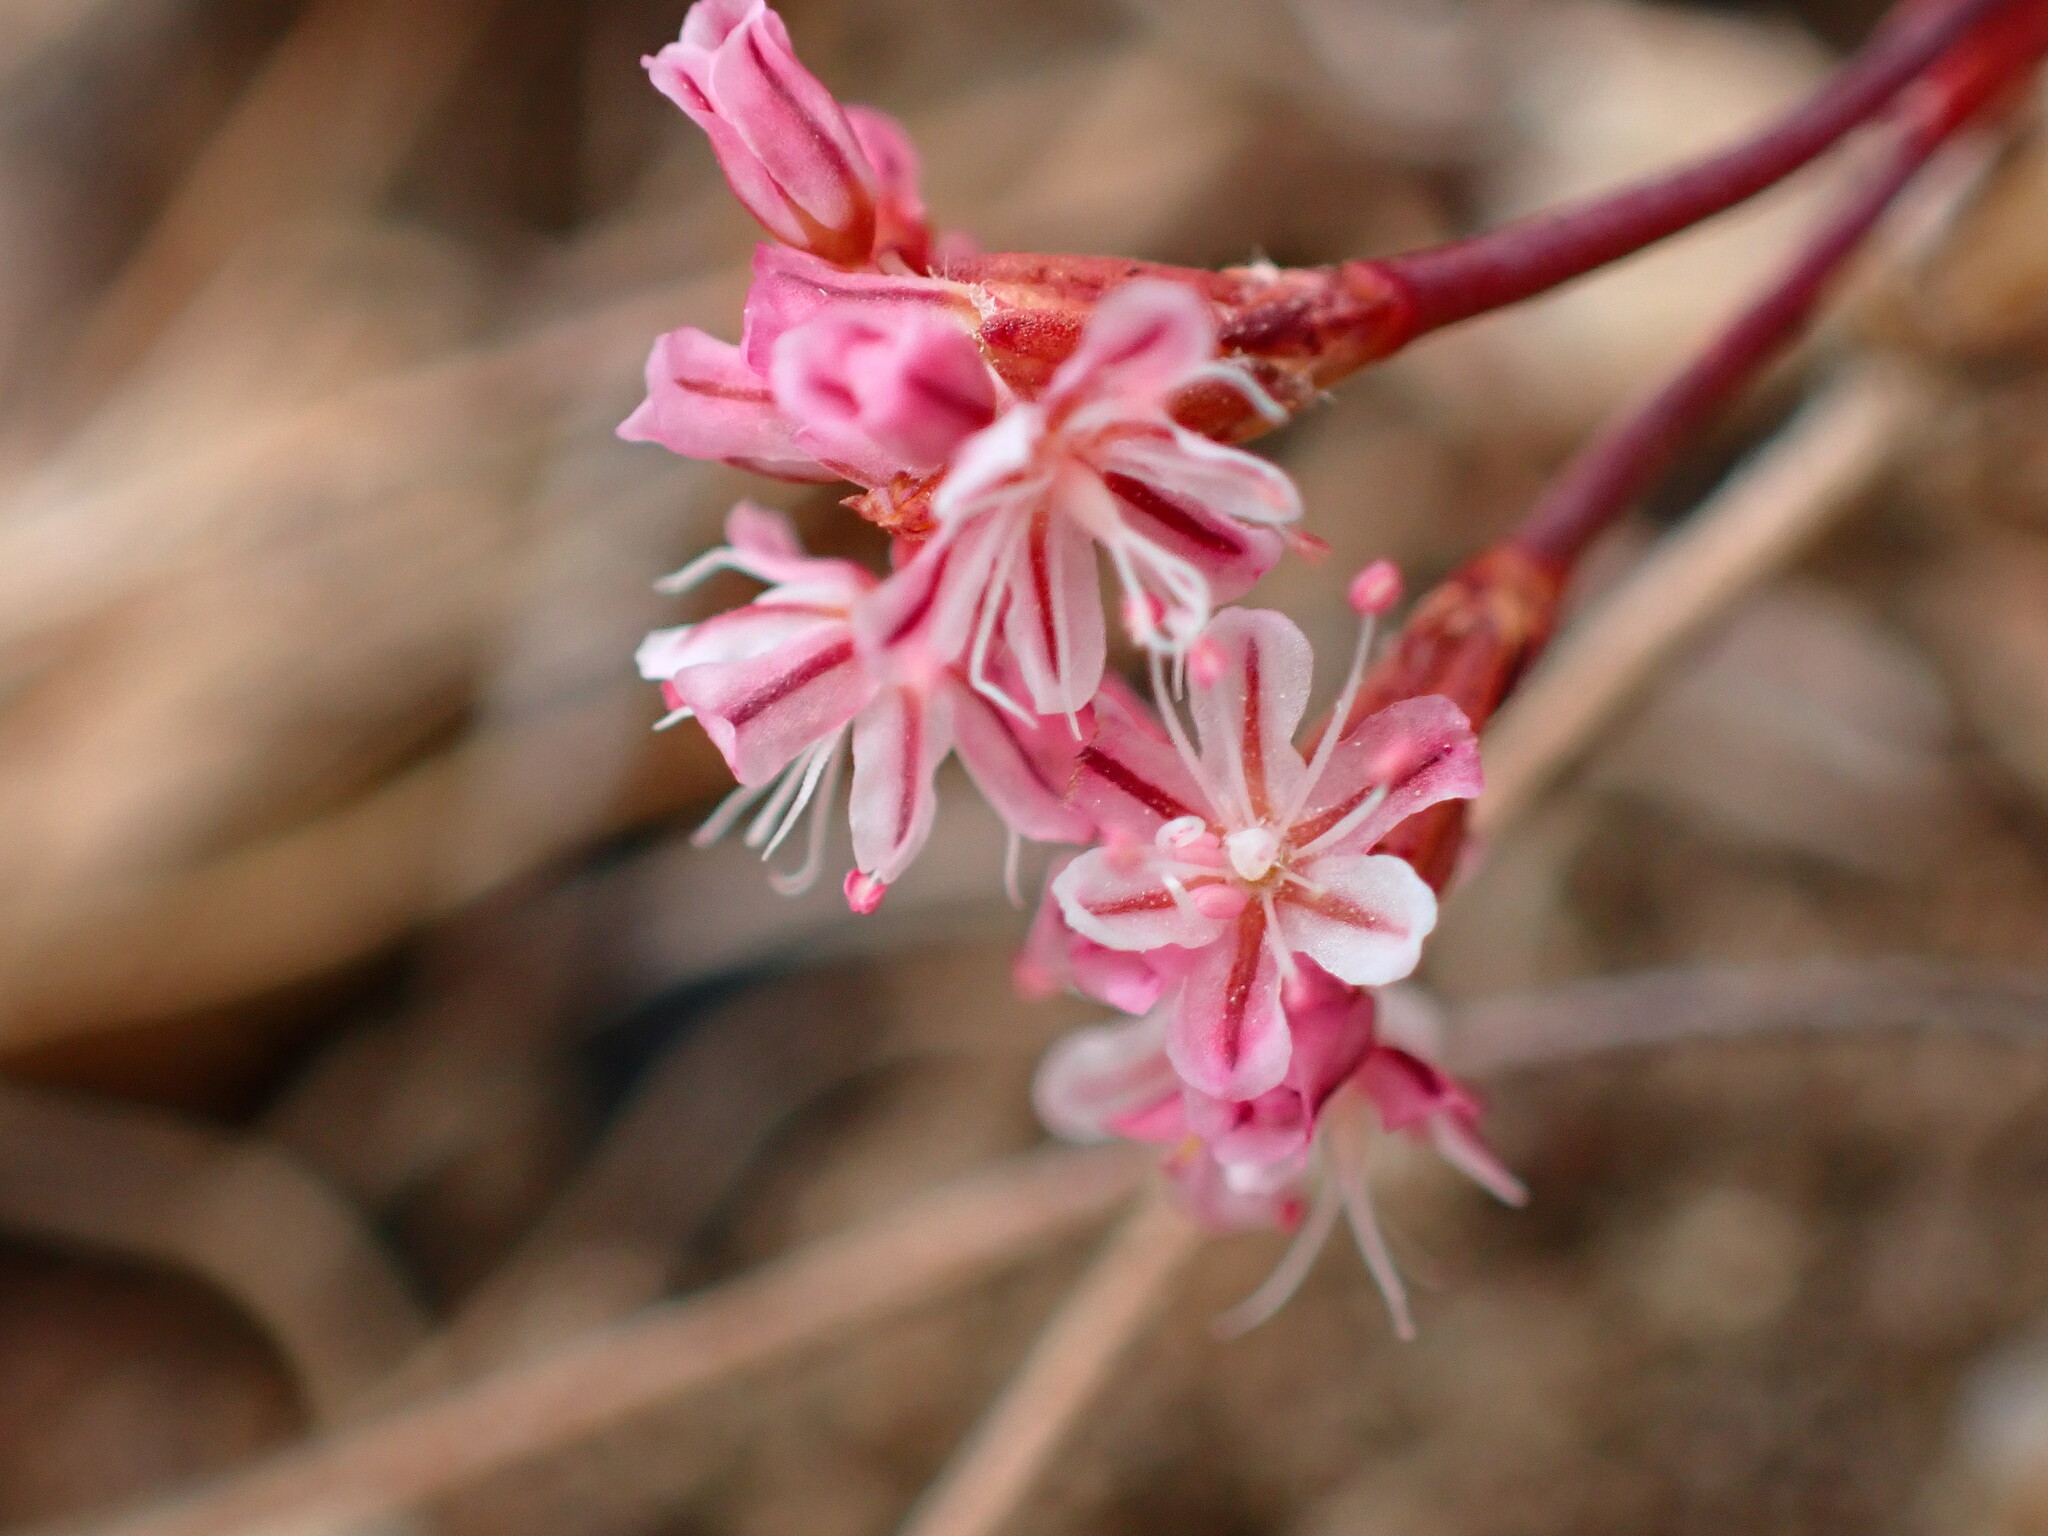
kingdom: Plantae
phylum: Tracheophyta
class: Magnoliopsida
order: Caryophyllales
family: Polygonaceae
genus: Eriogonum
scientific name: Eriogonum luteolum
